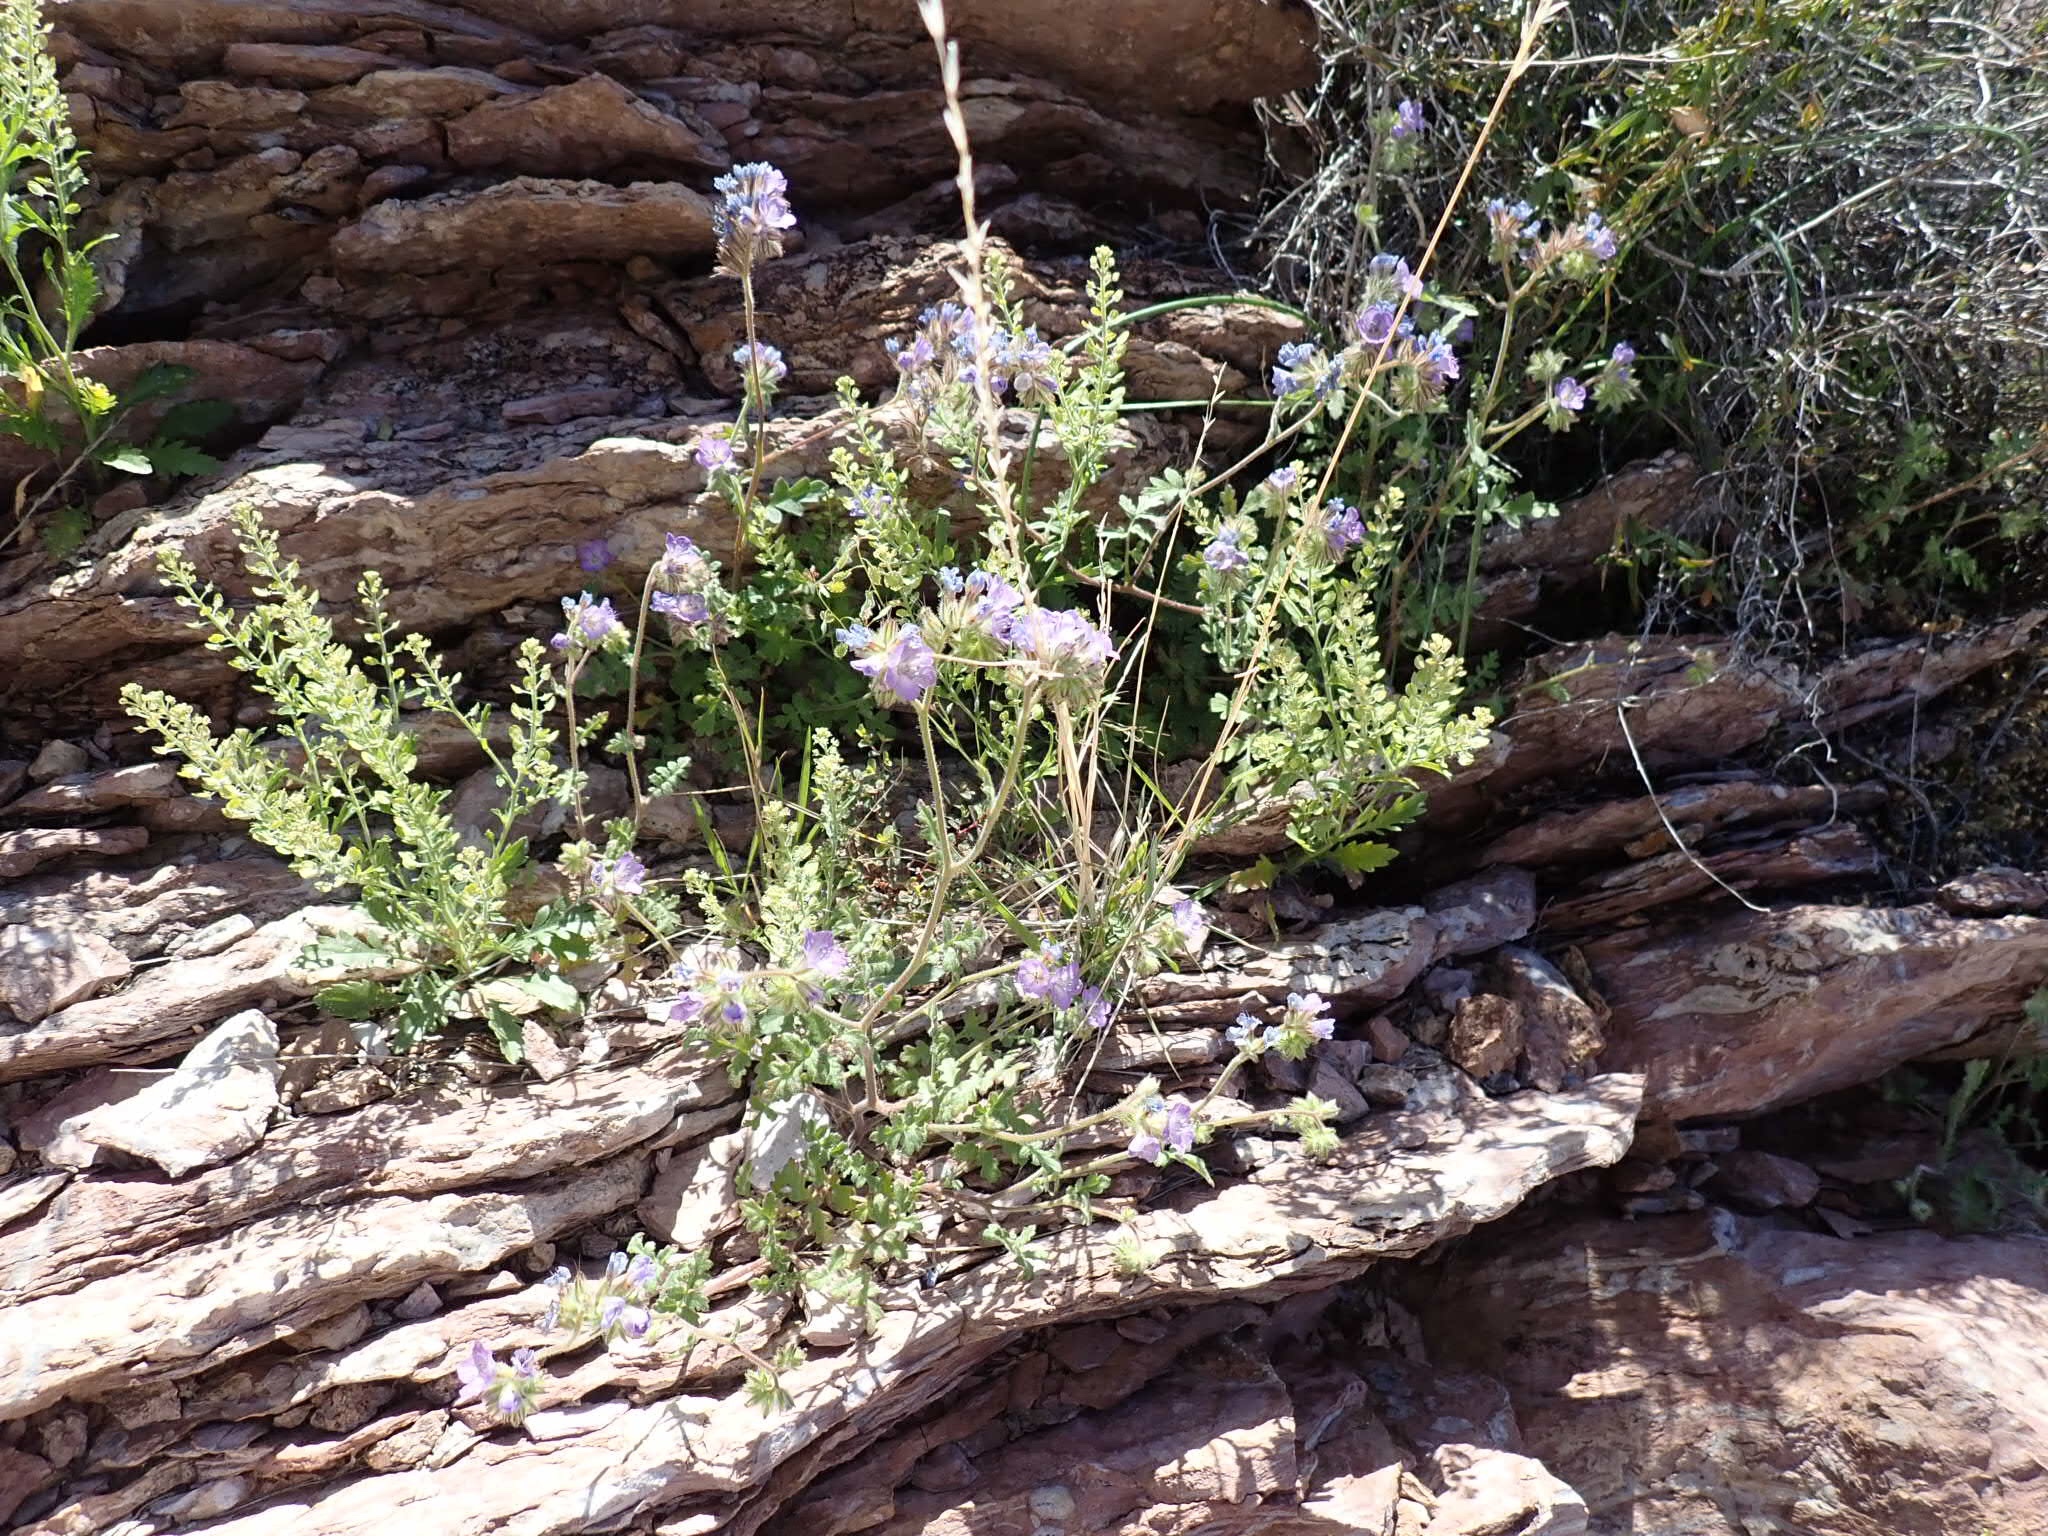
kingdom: Plantae
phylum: Tracheophyta
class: Magnoliopsida
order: Boraginales
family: Hydrophyllaceae
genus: Phacelia
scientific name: Phacelia distans
